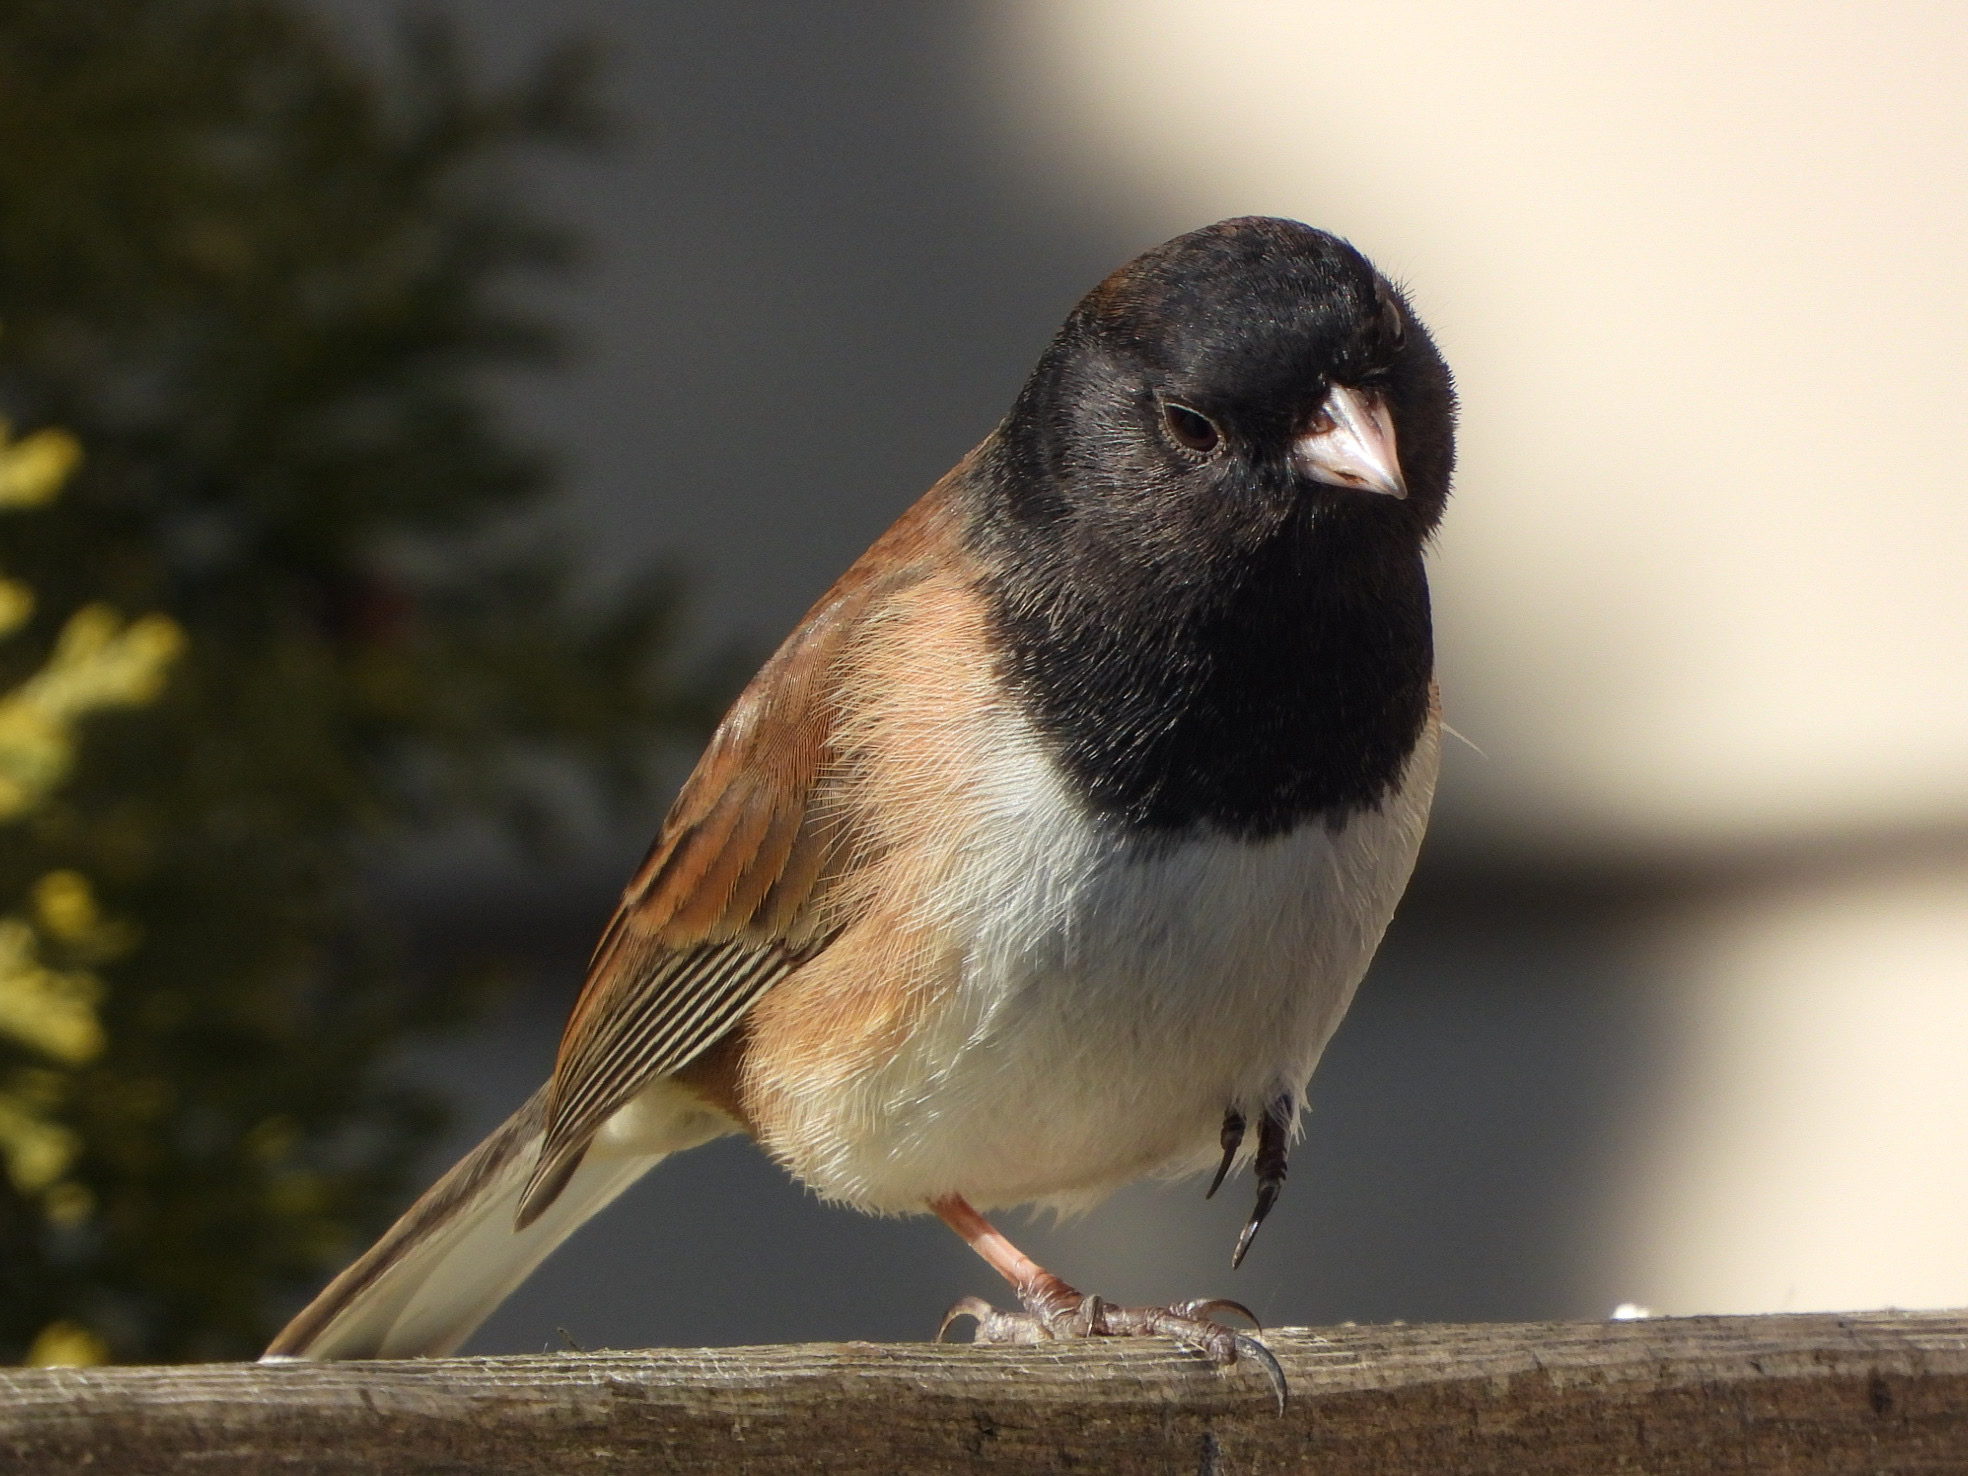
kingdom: Animalia
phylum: Chordata
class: Aves
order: Passeriformes
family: Passerellidae
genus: Junco
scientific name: Junco hyemalis
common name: Dark-eyed junco
